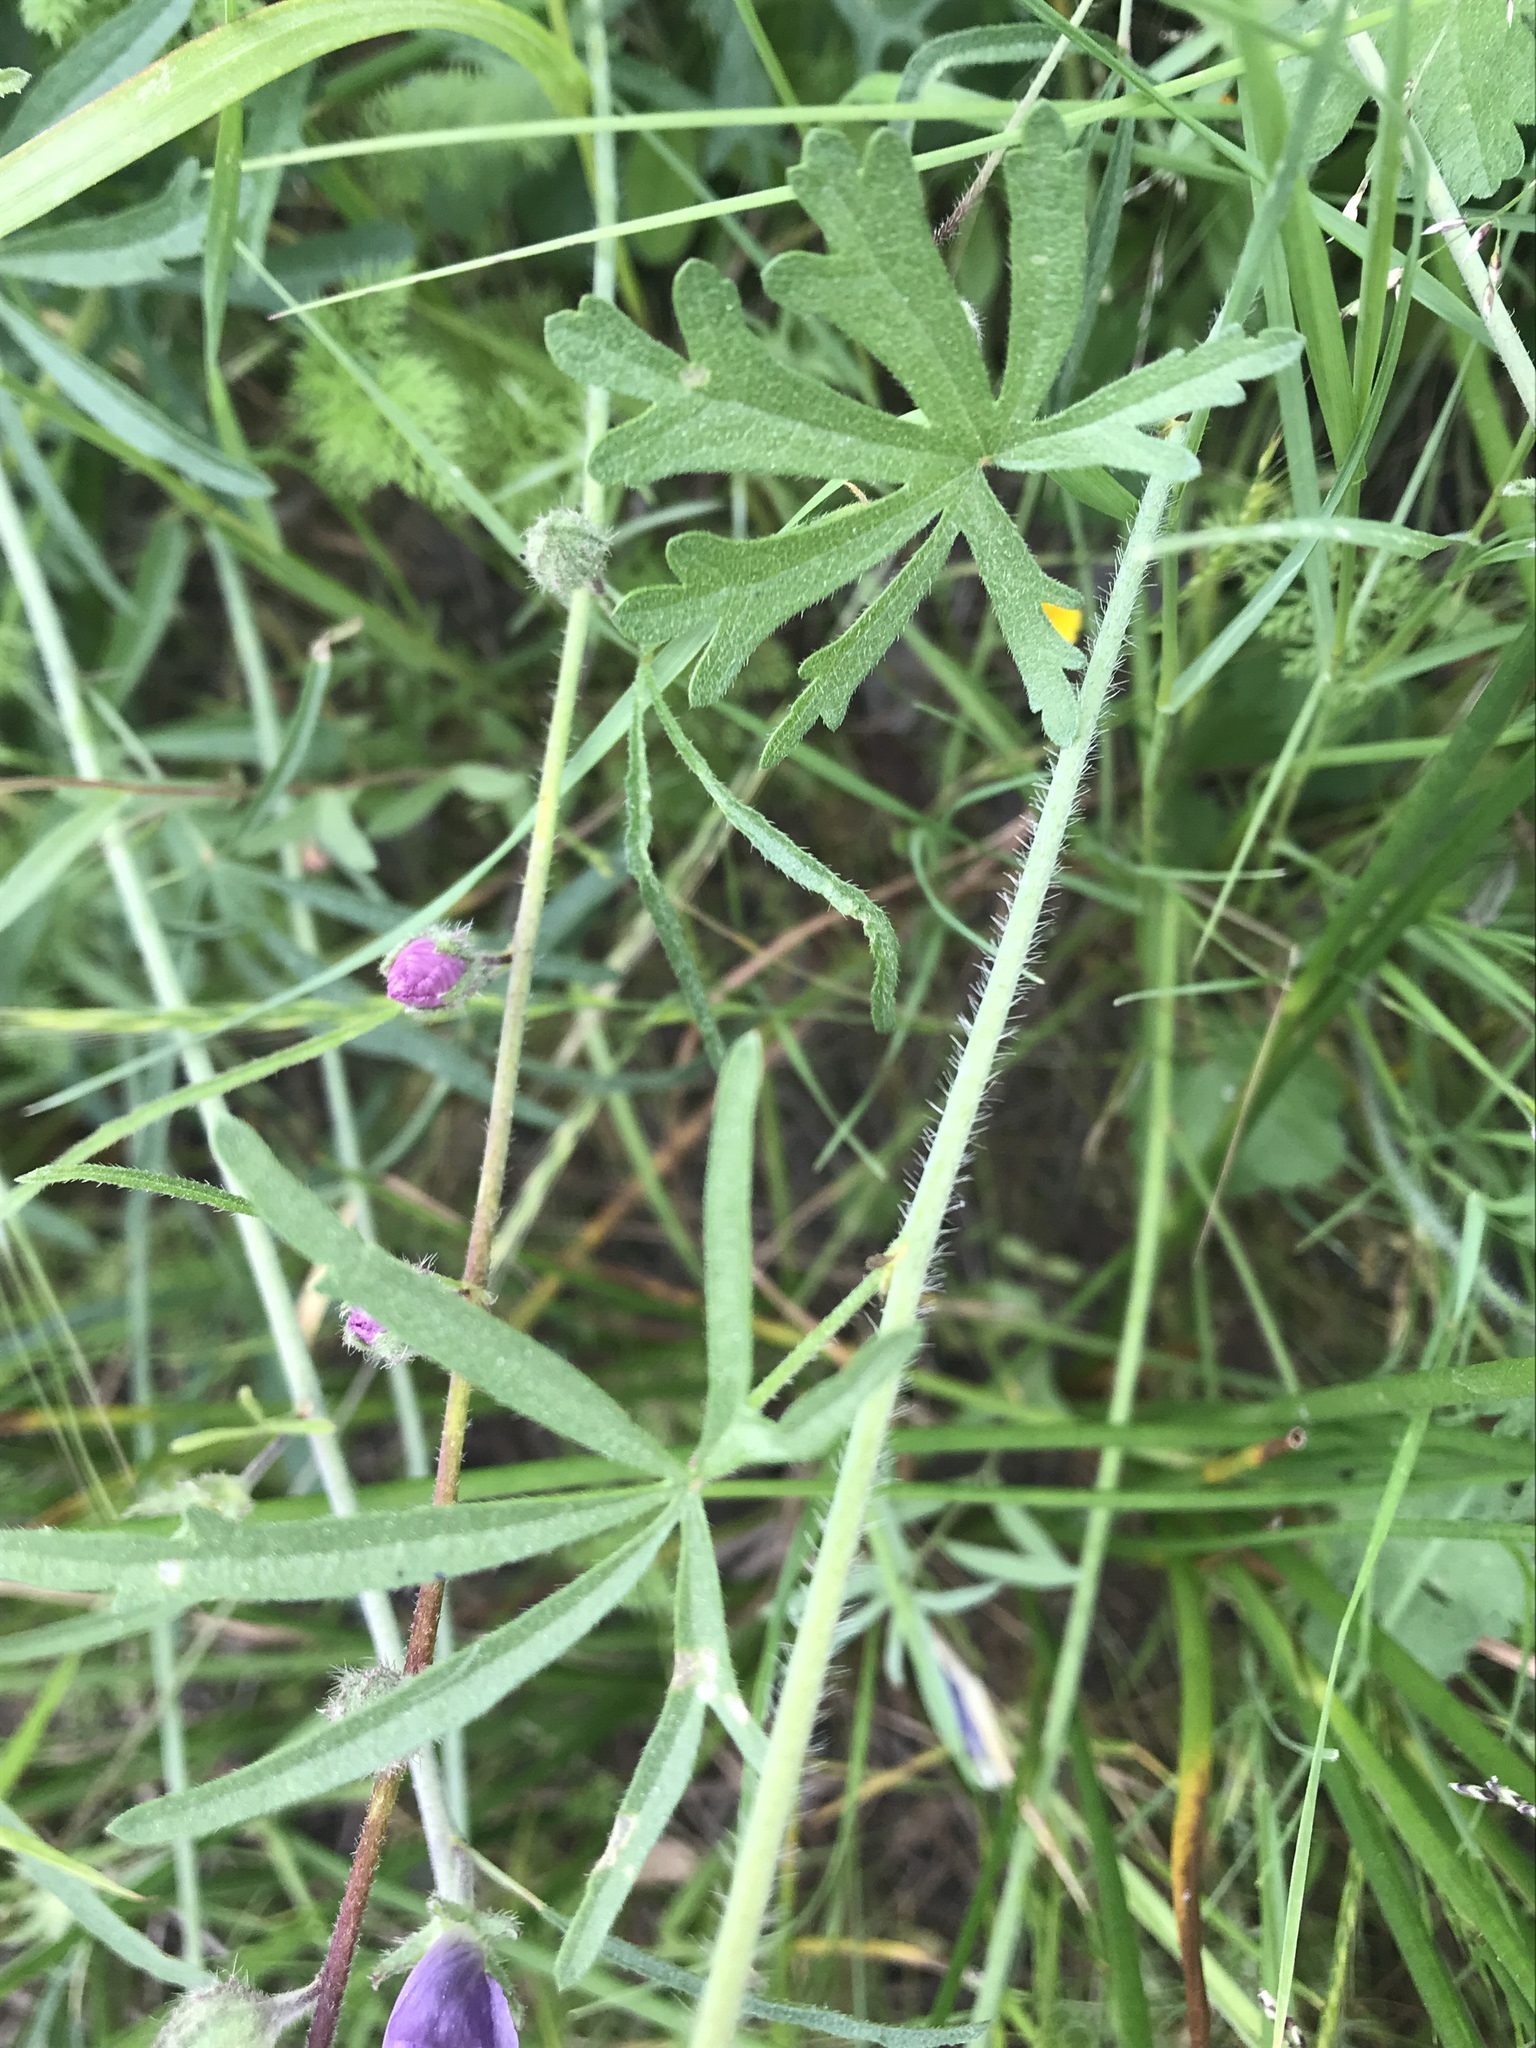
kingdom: Plantae
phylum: Tracheophyta
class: Magnoliopsida
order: Malvales
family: Malvaceae
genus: Sidalcea
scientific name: Sidalcea sparsifolia
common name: Southern checkerbloom
